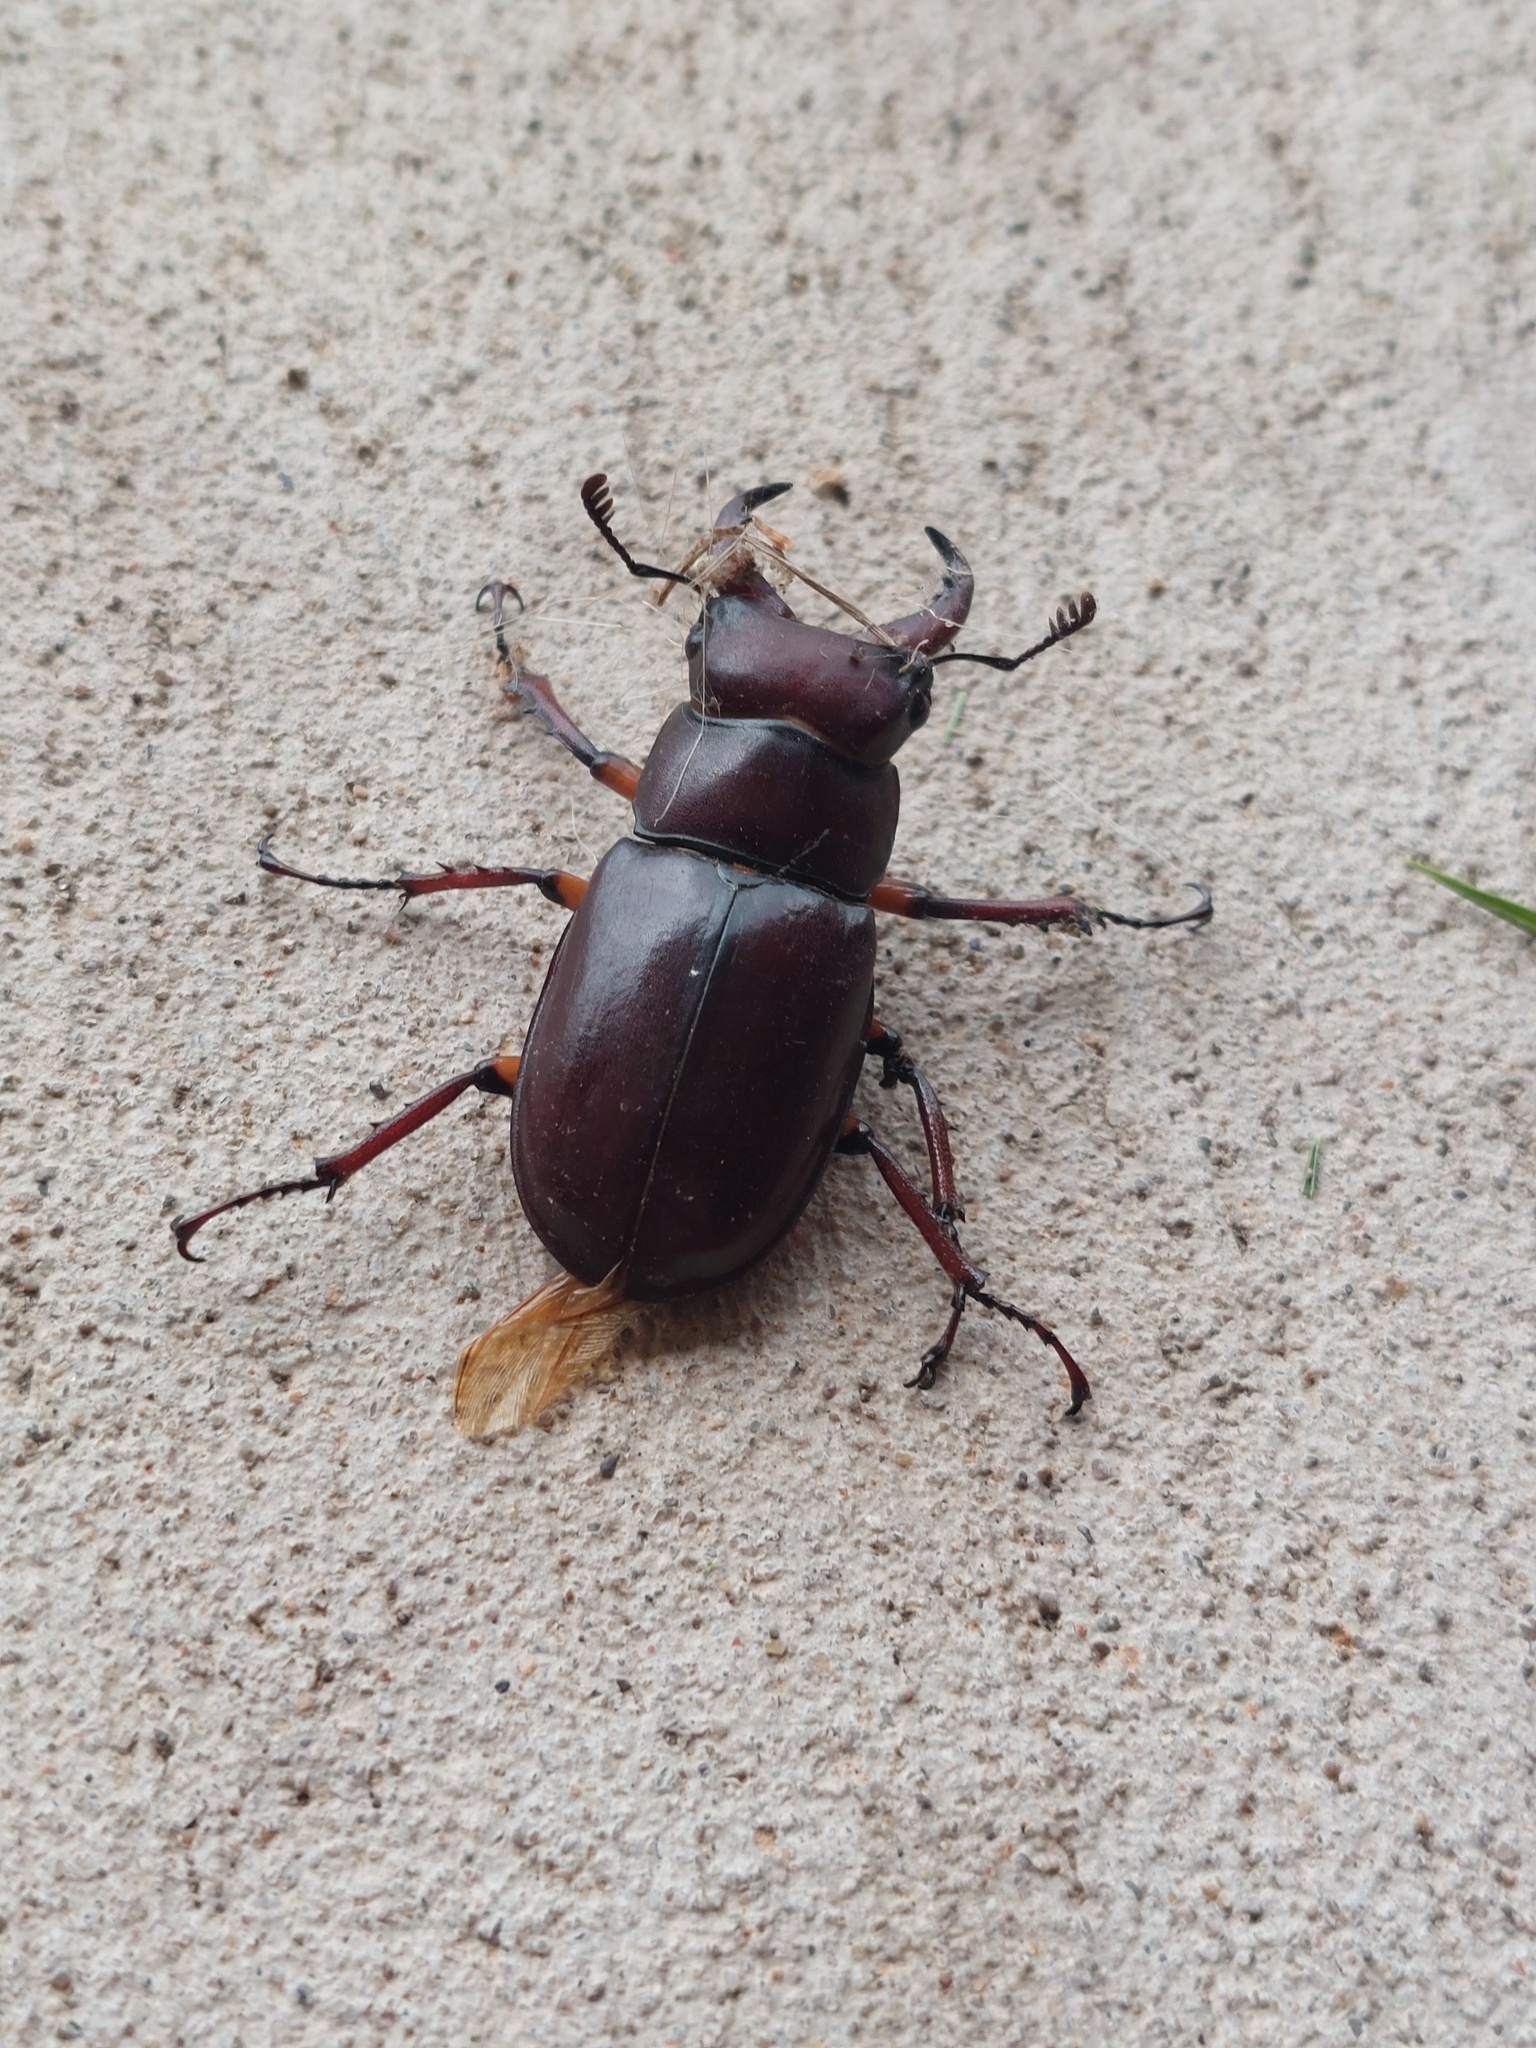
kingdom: Animalia
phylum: Arthropoda
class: Insecta
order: Coleoptera
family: Lucanidae
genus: Lucanus
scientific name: Lucanus capreolus
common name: Stag beetle
